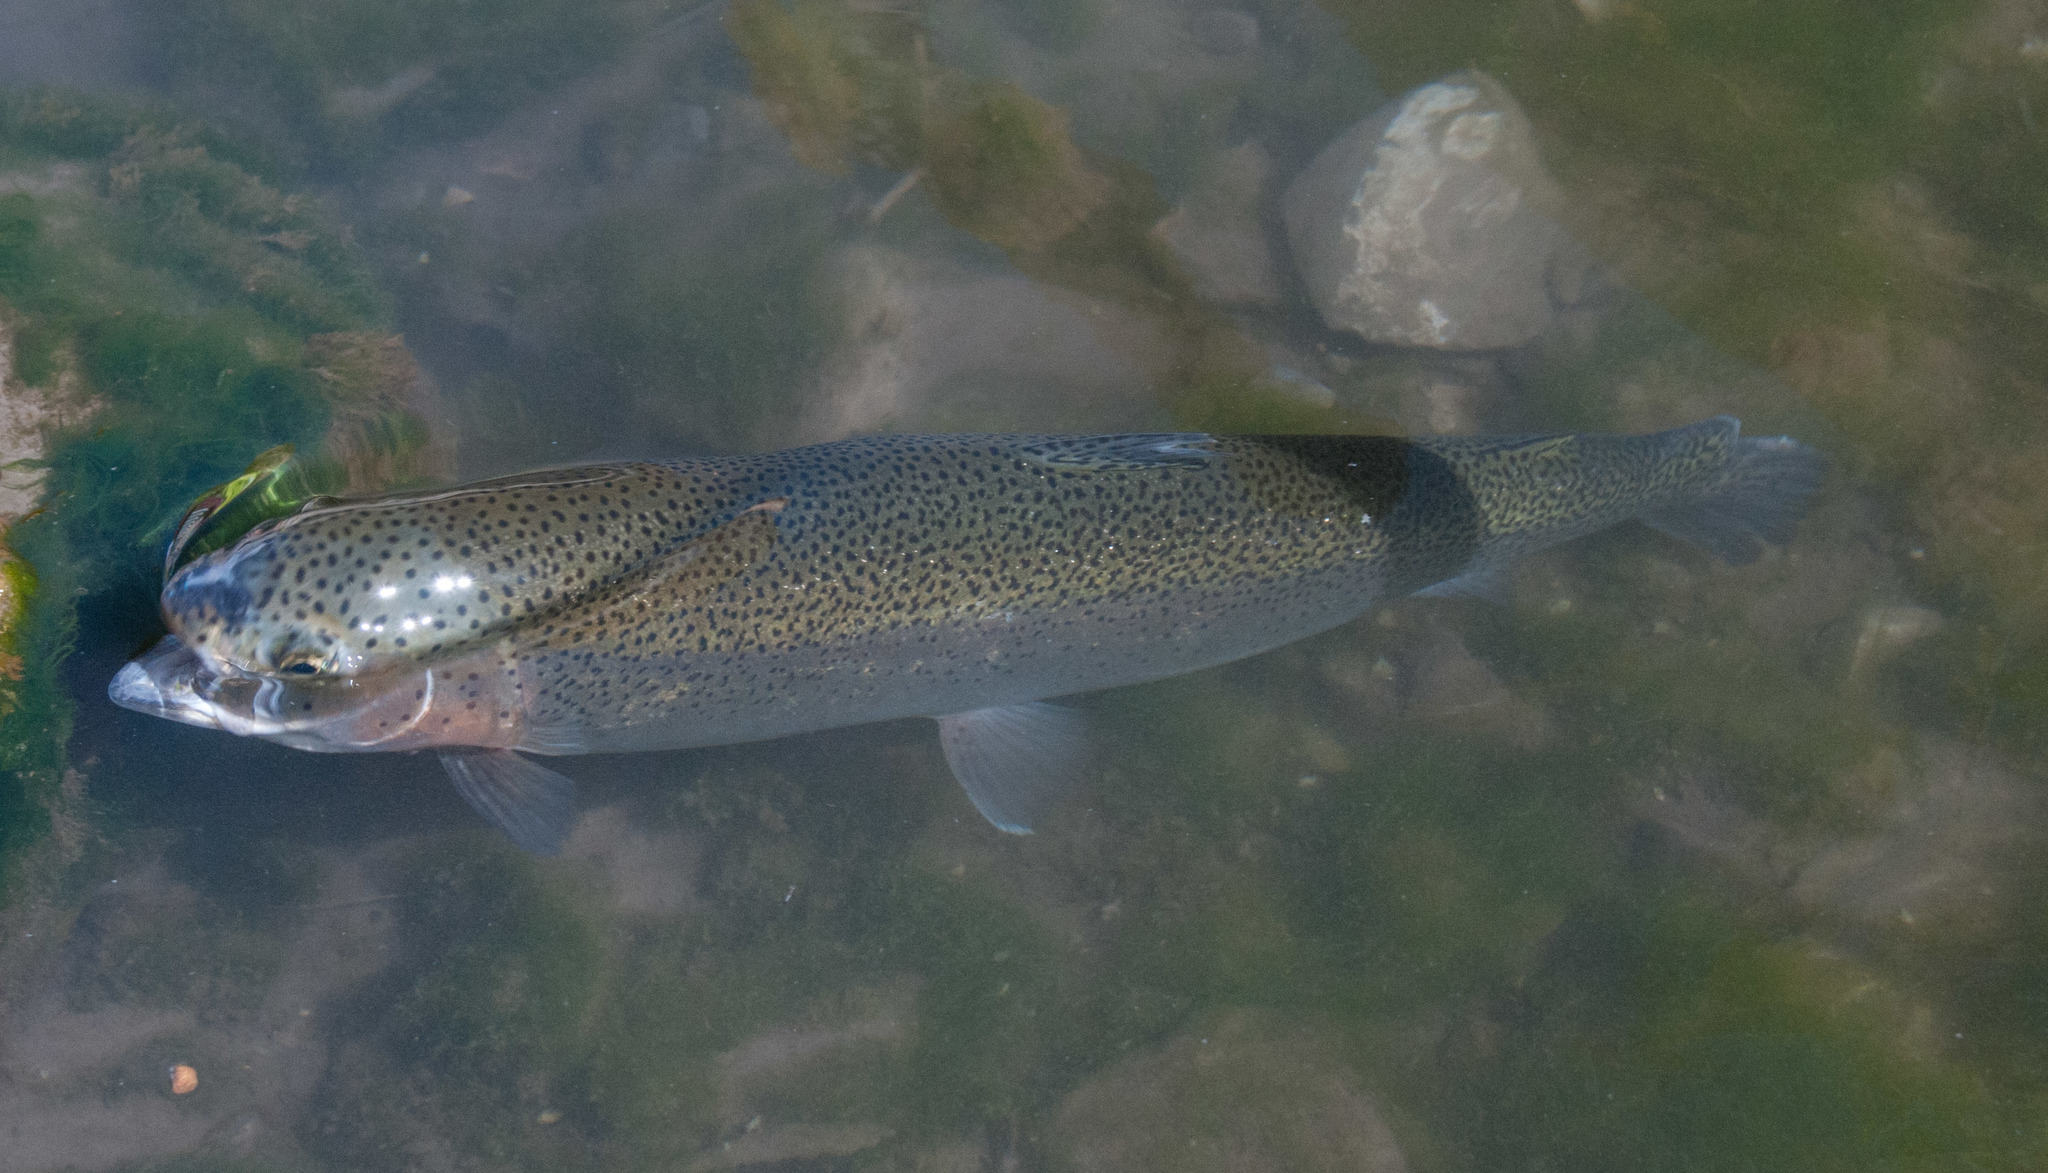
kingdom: Animalia
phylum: Chordata
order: Salmoniformes
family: Salmonidae
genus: Oncorhynchus
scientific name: Oncorhynchus mykiss
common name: Rainbow trout
